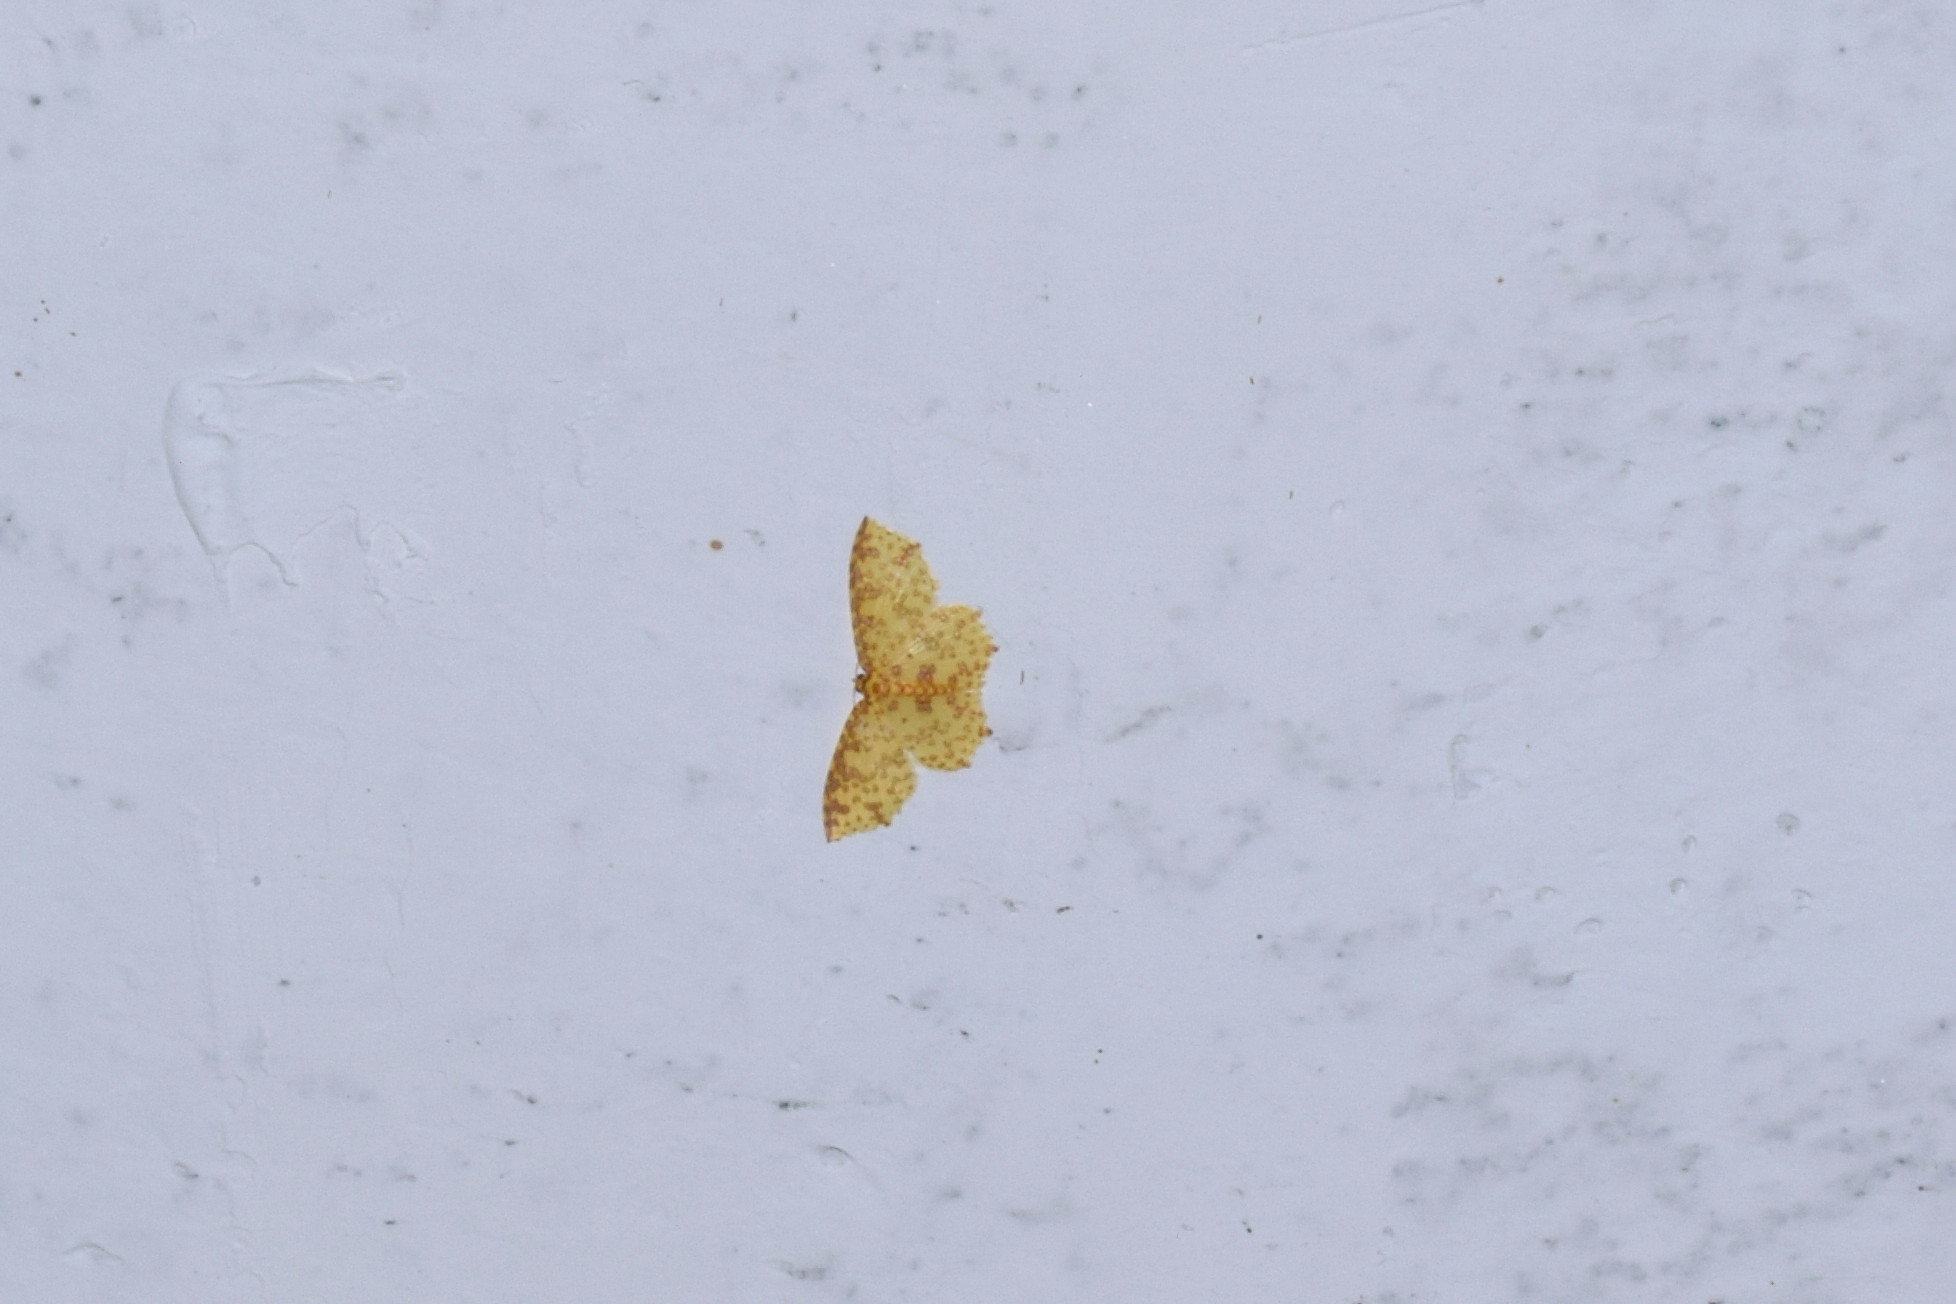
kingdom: Animalia
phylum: Arthropoda
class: Insecta
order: Lepidoptera
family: Geometridae
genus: Polynesia
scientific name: Polynesia curtitibia
